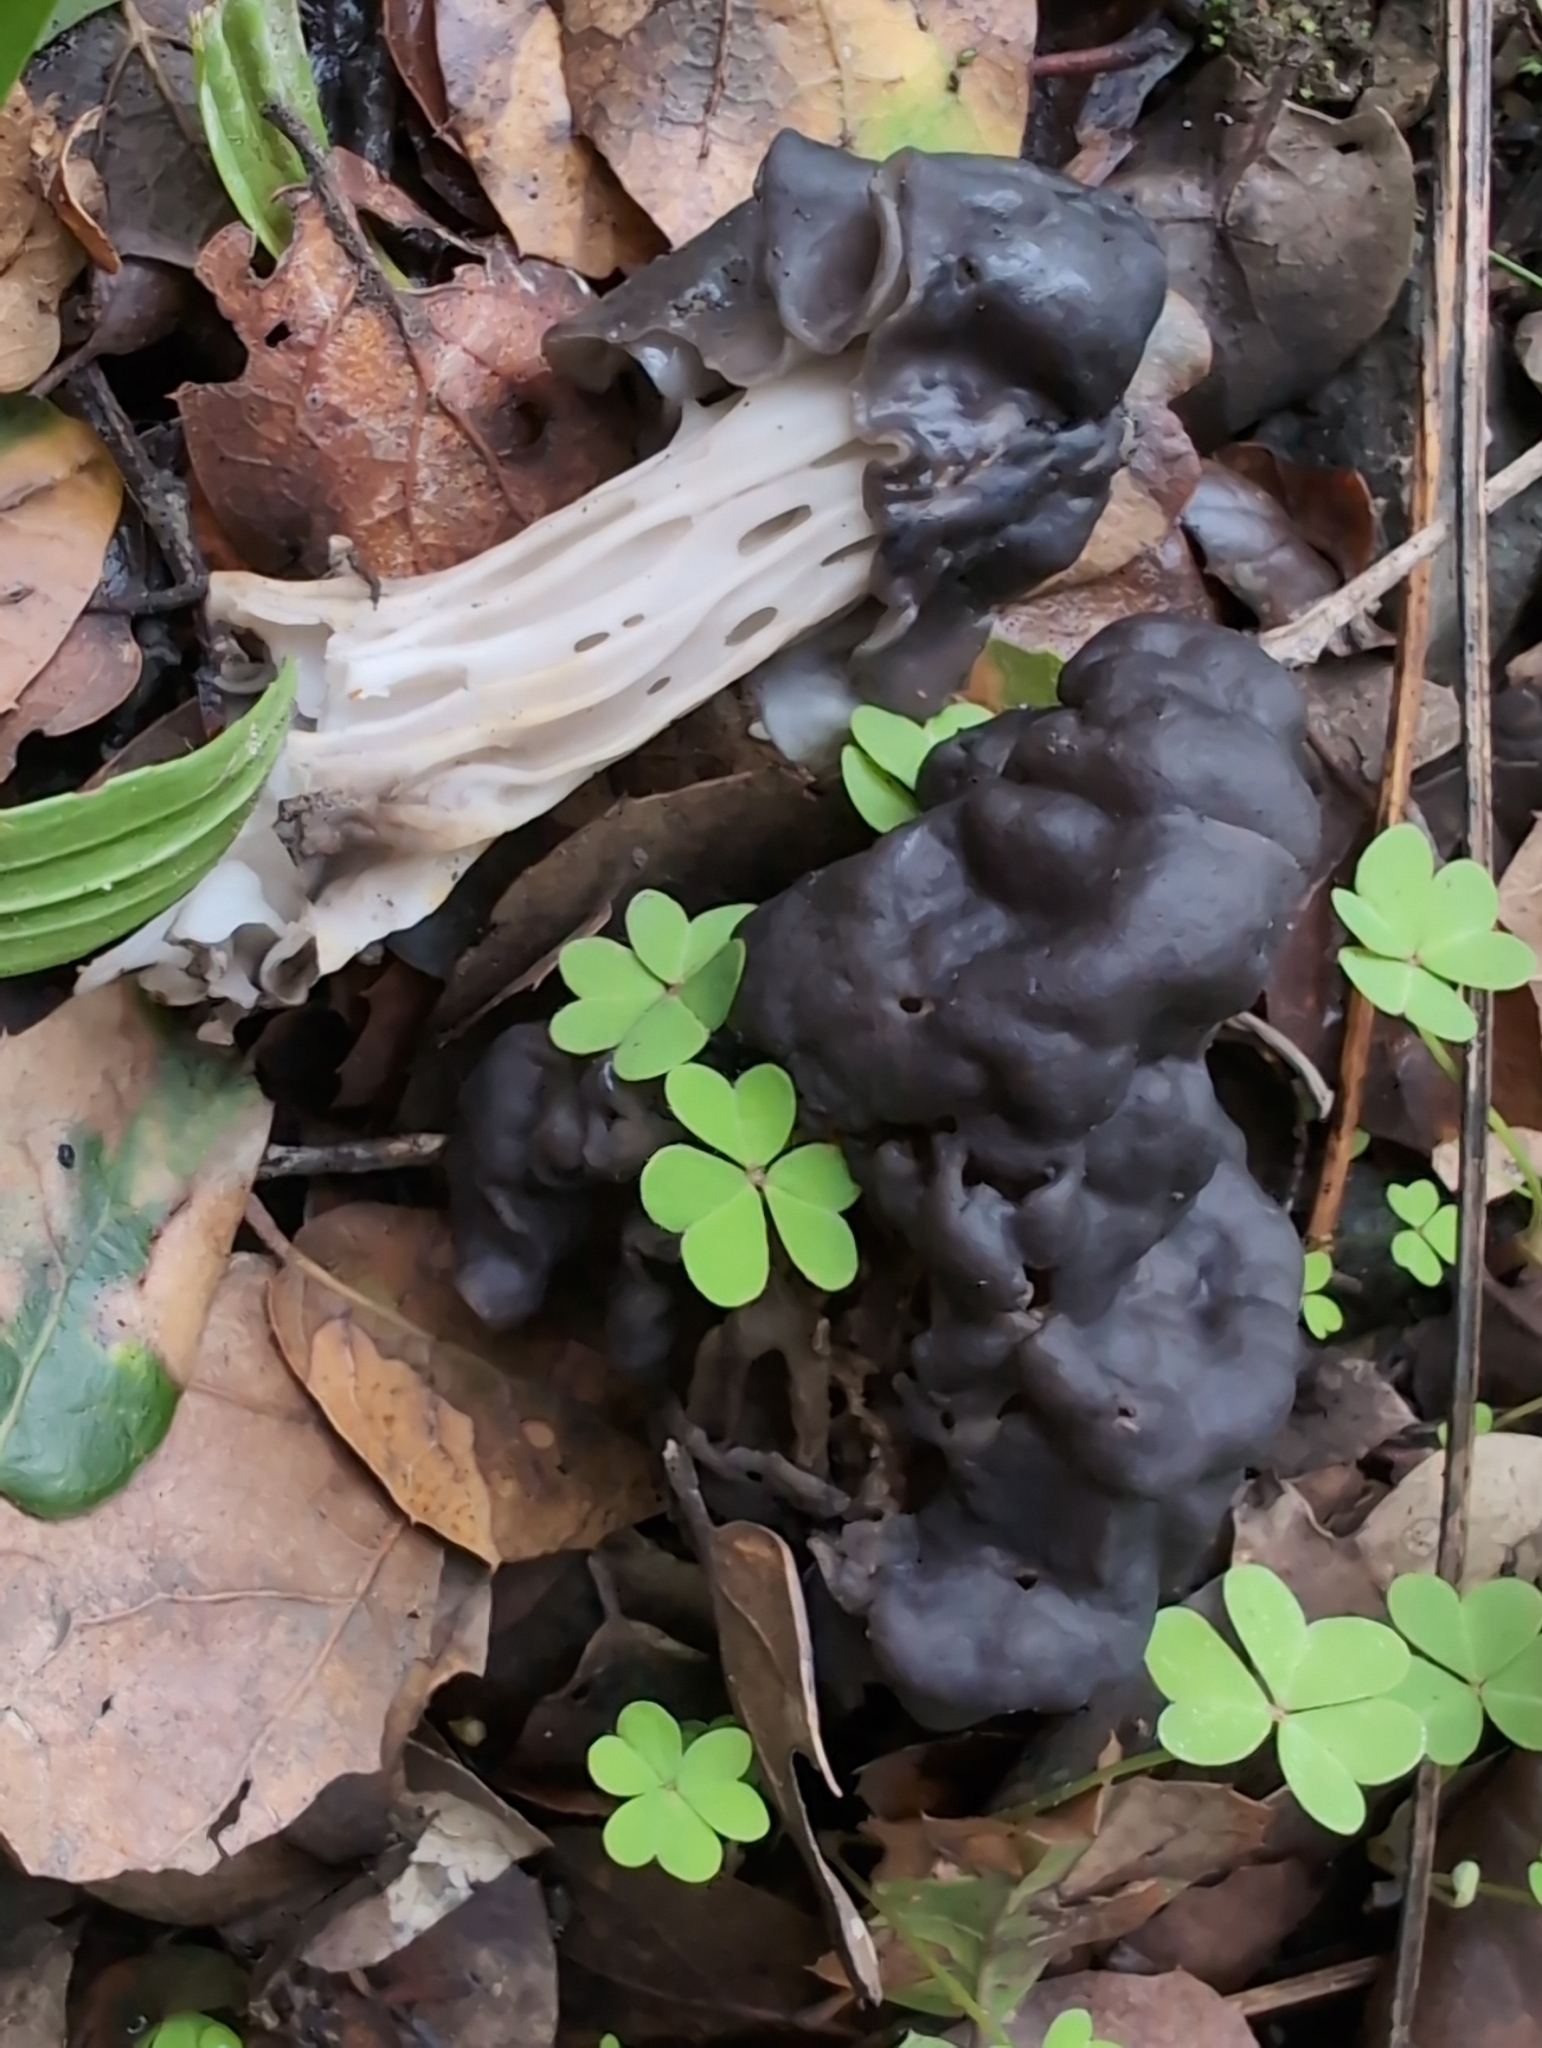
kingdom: Fungi
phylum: Ascomycota
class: Pezizomycetes
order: Pezizales
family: Helvellaceae
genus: Helvella
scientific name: Helvella dryophila
